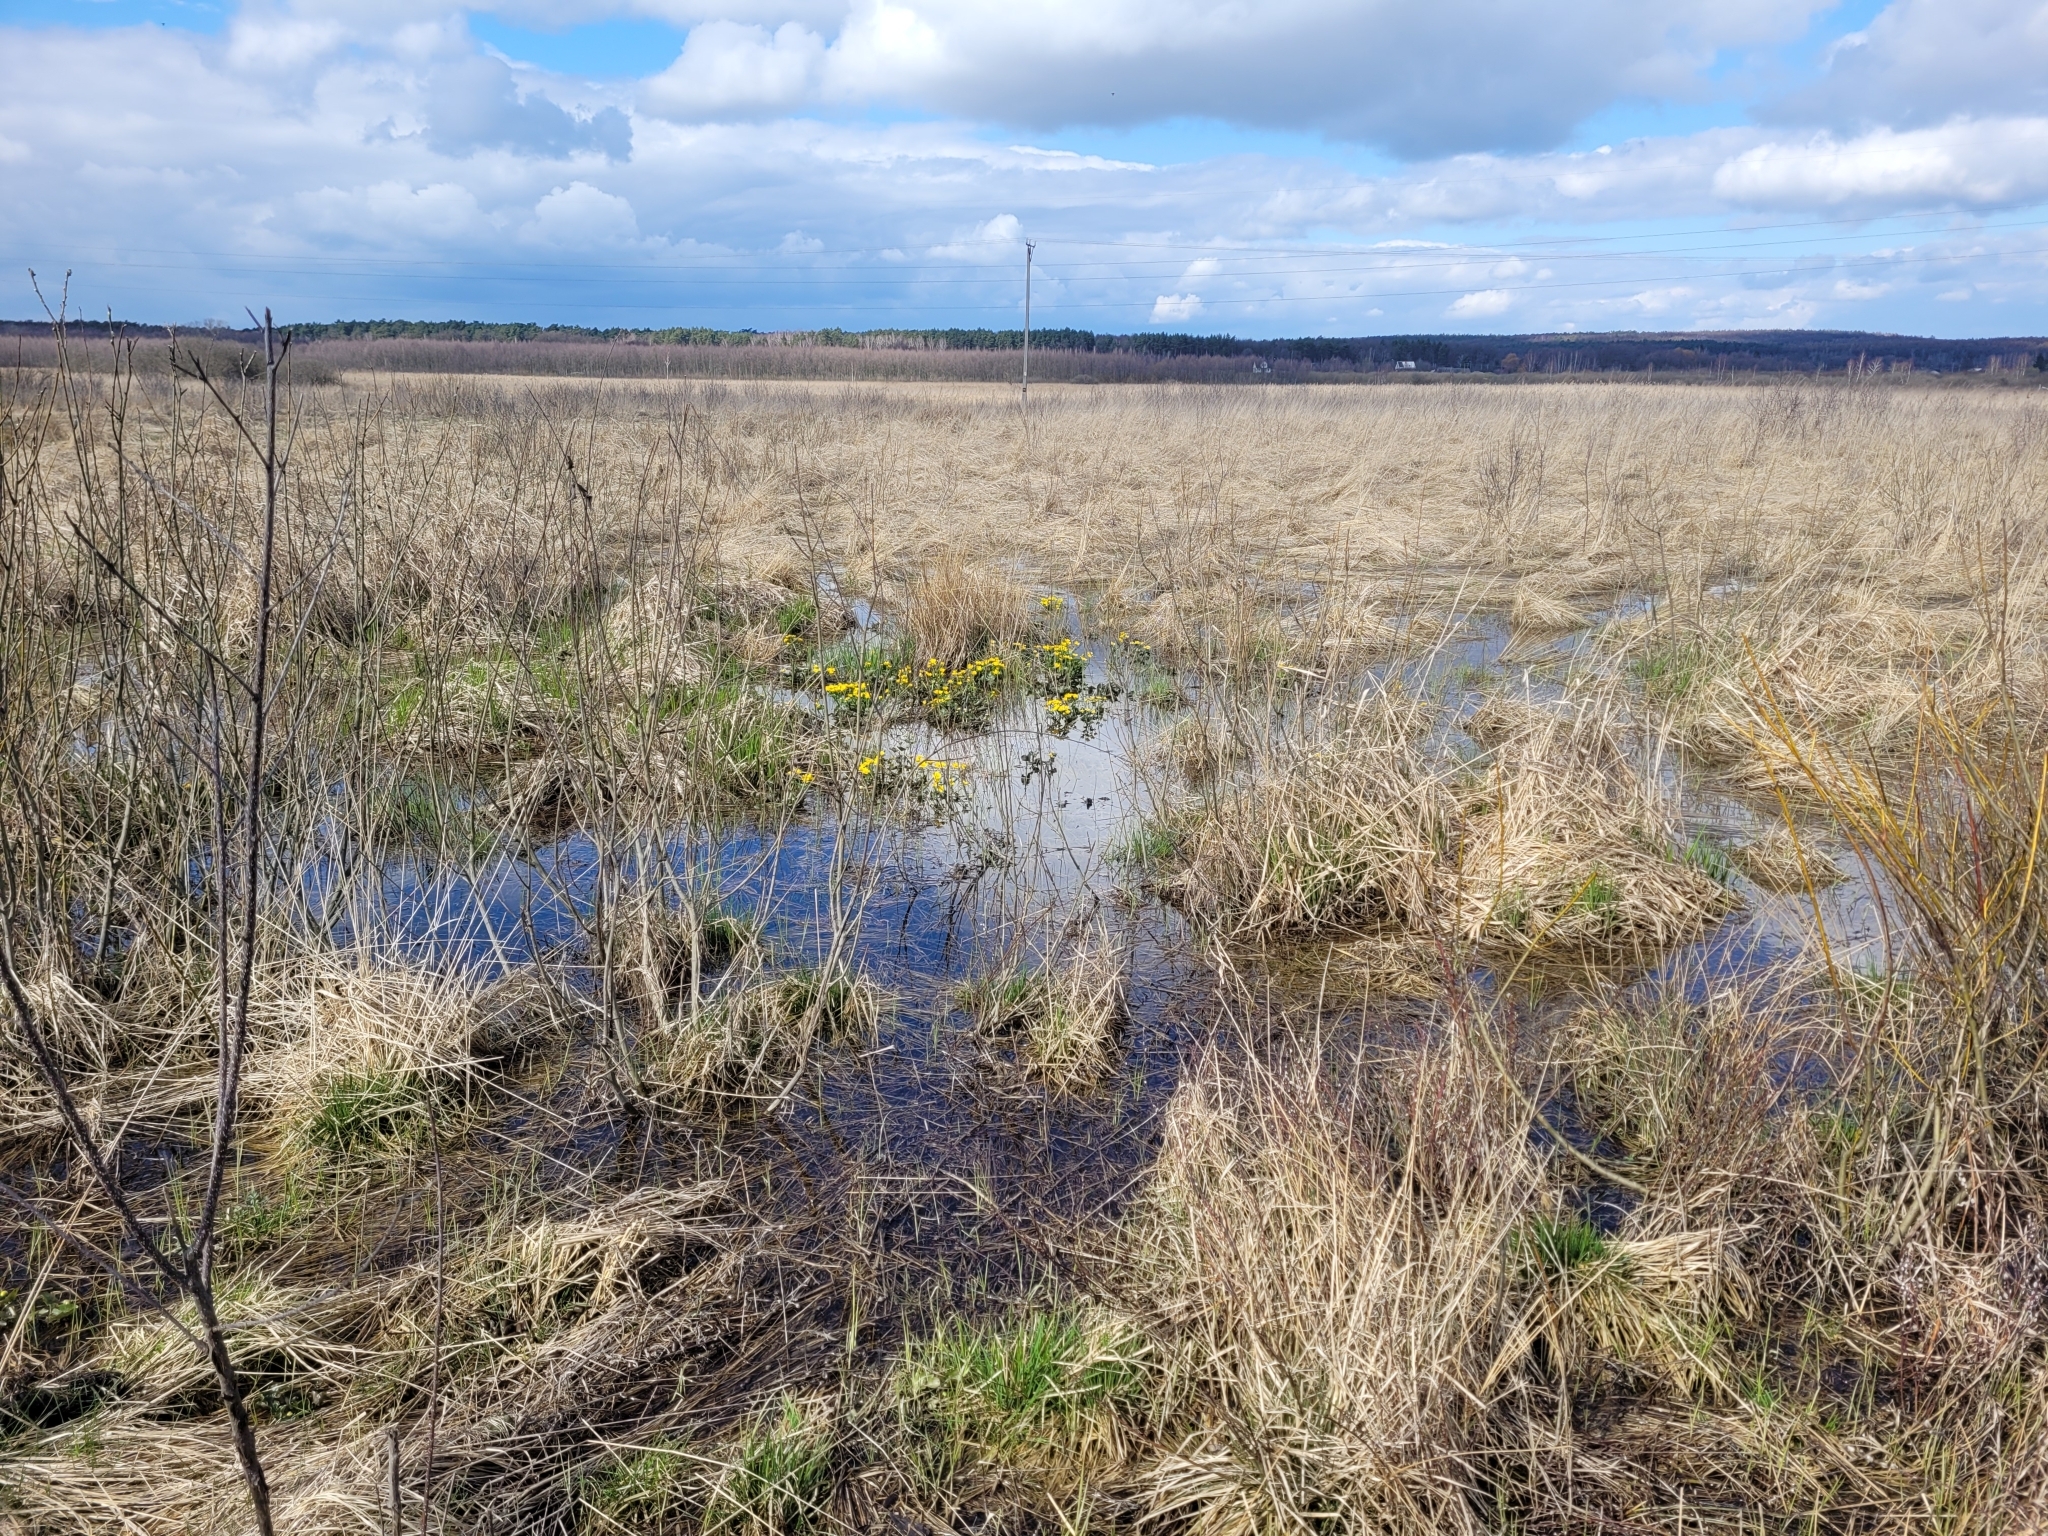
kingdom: Plantae
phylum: Tracheophyta
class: Magnoliopsida
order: Ranunculales
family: Ranunculaceae
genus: Caltha
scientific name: Caltha palustris
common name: Marsh marigold
